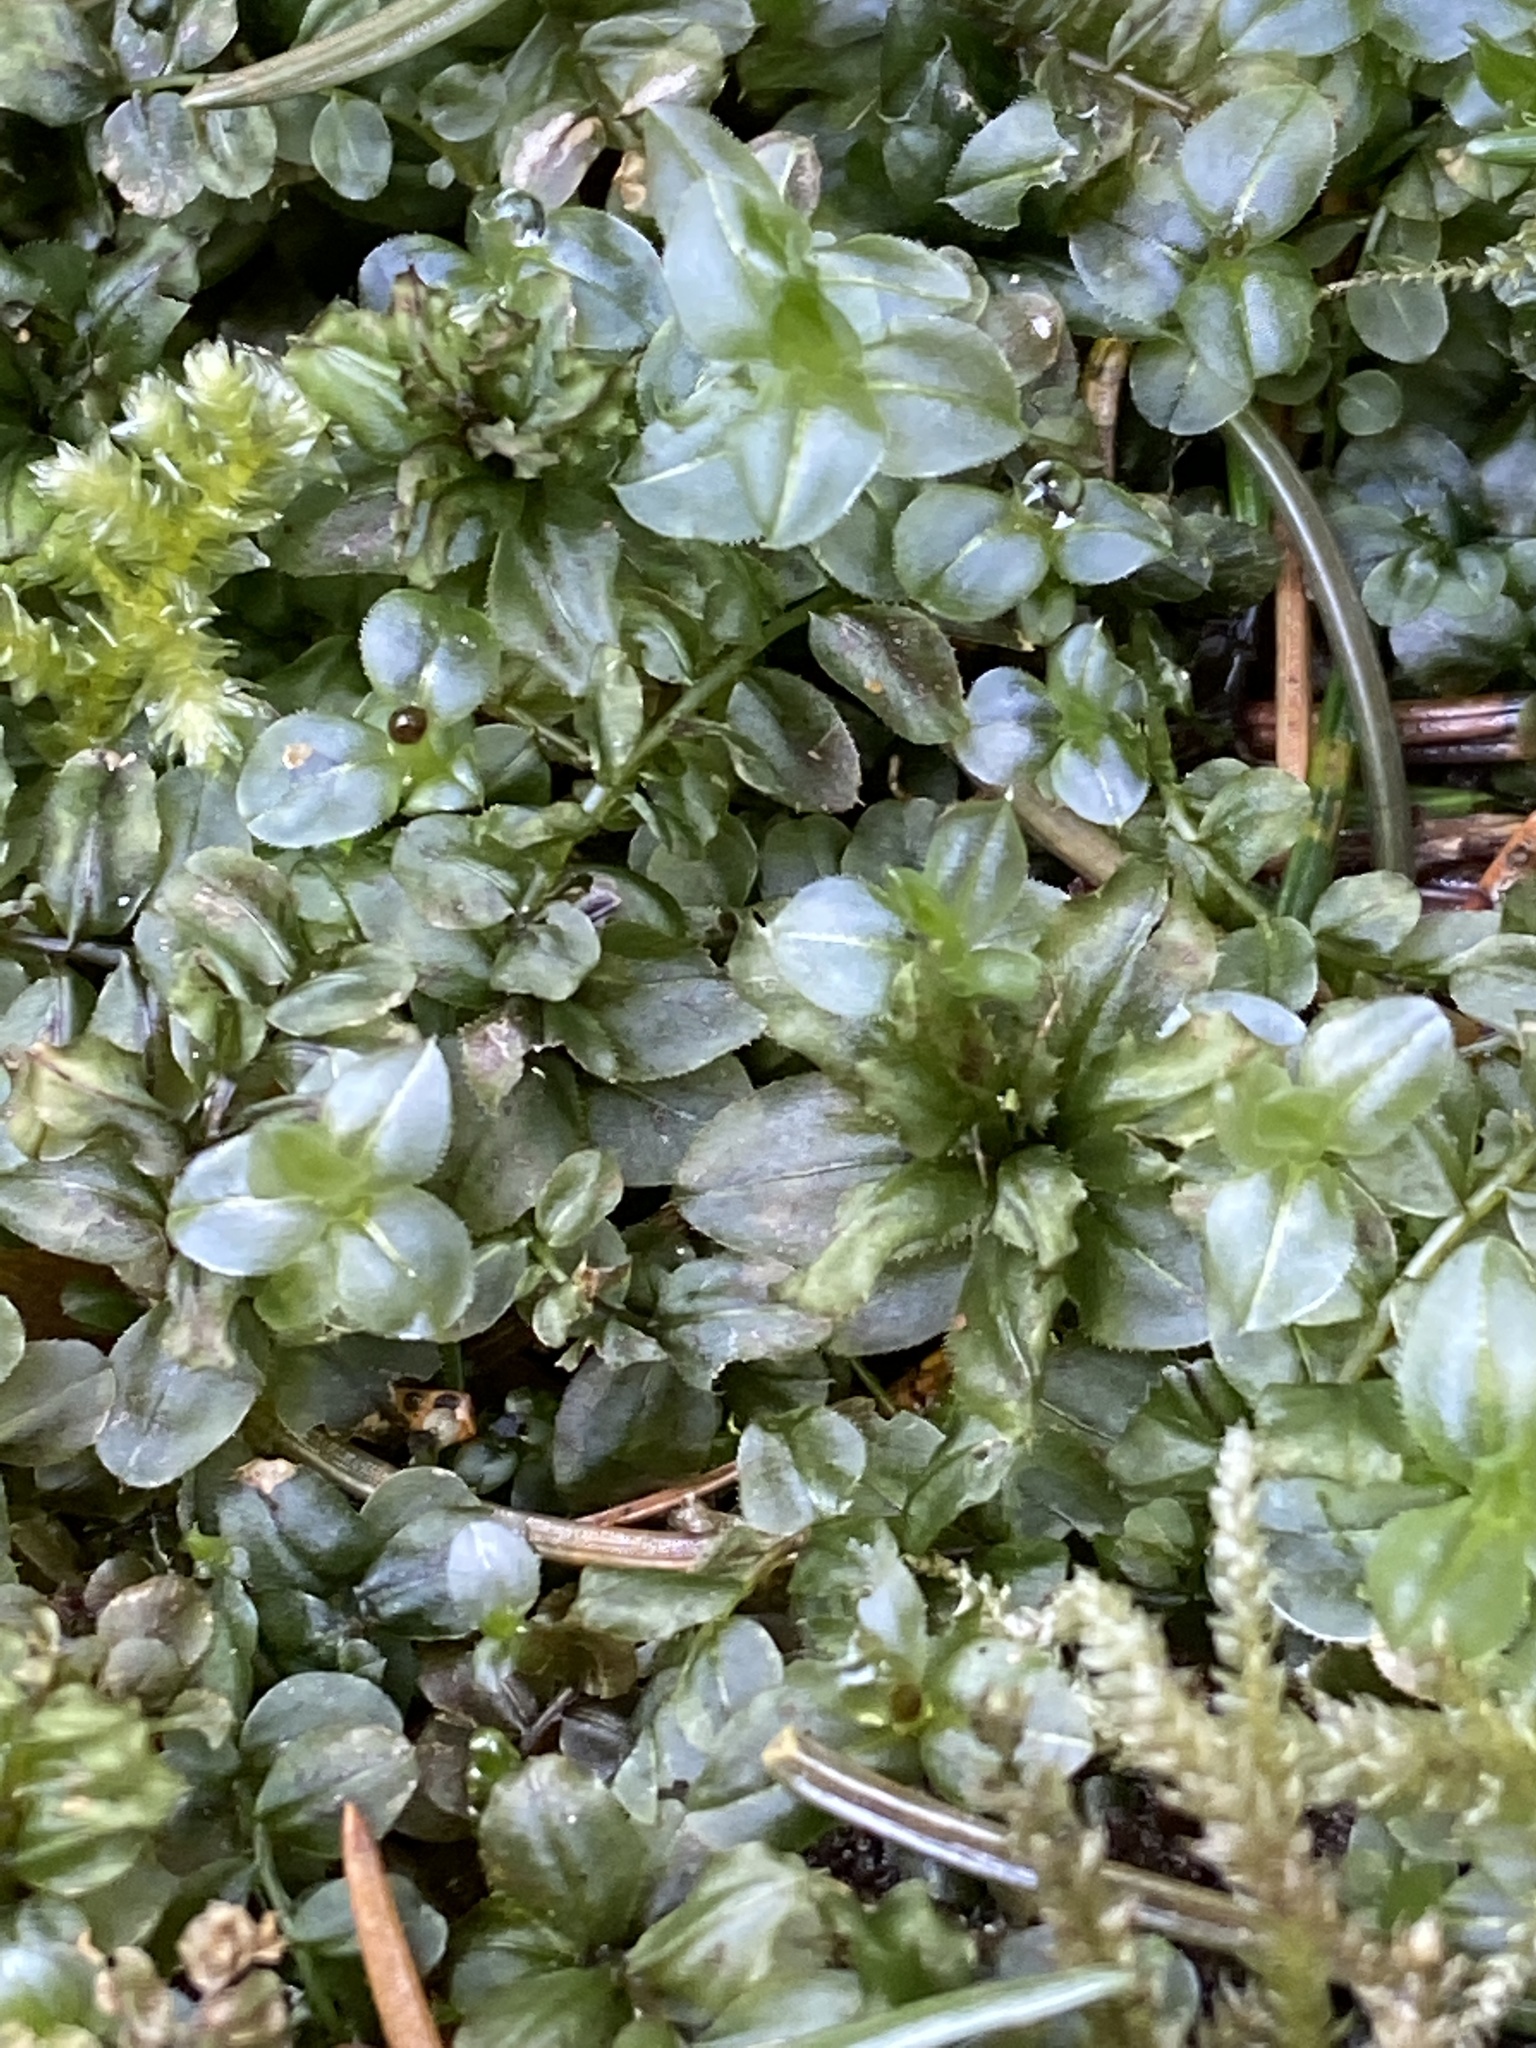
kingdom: Plantae
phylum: Bryophyta
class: Bryopsida
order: Bryales
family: Mniaceae
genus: Plagiomnium
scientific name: Plagiomnium affine
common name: Many-fruited thyme-moss
